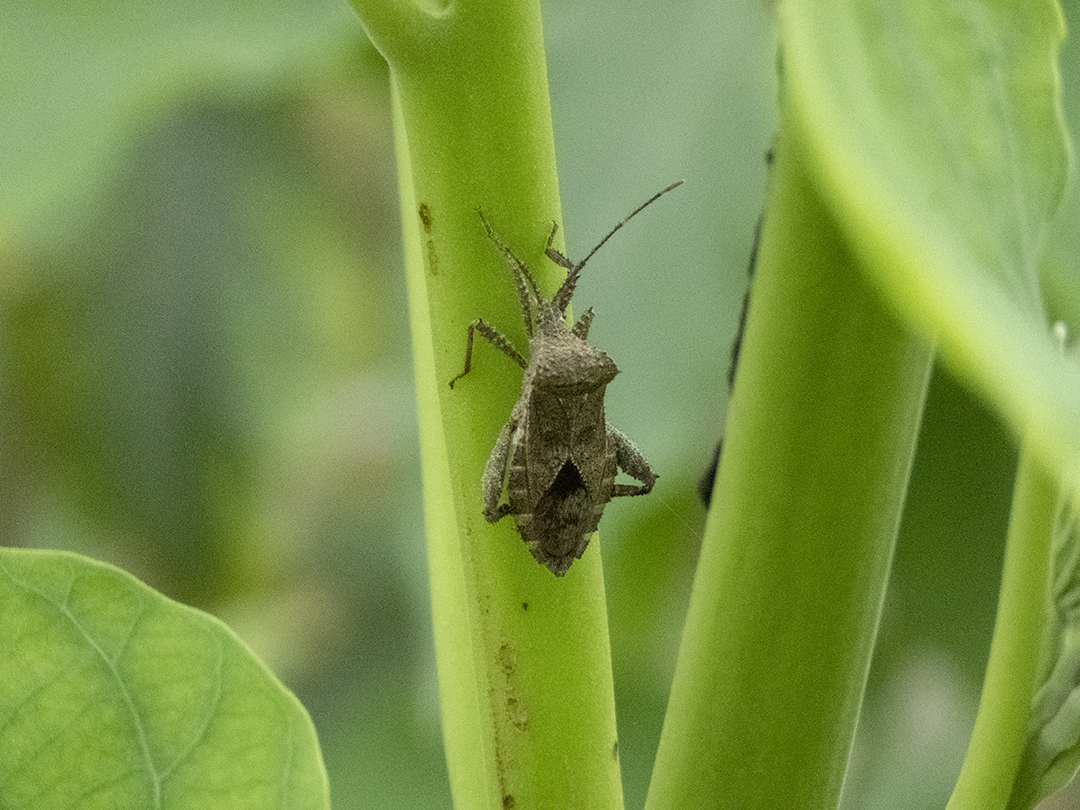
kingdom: Animalia
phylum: Arthropoda
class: Insecta
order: Hemiptera
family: Coreidae
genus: Acanthocoris
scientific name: Acanthocoris scaber
